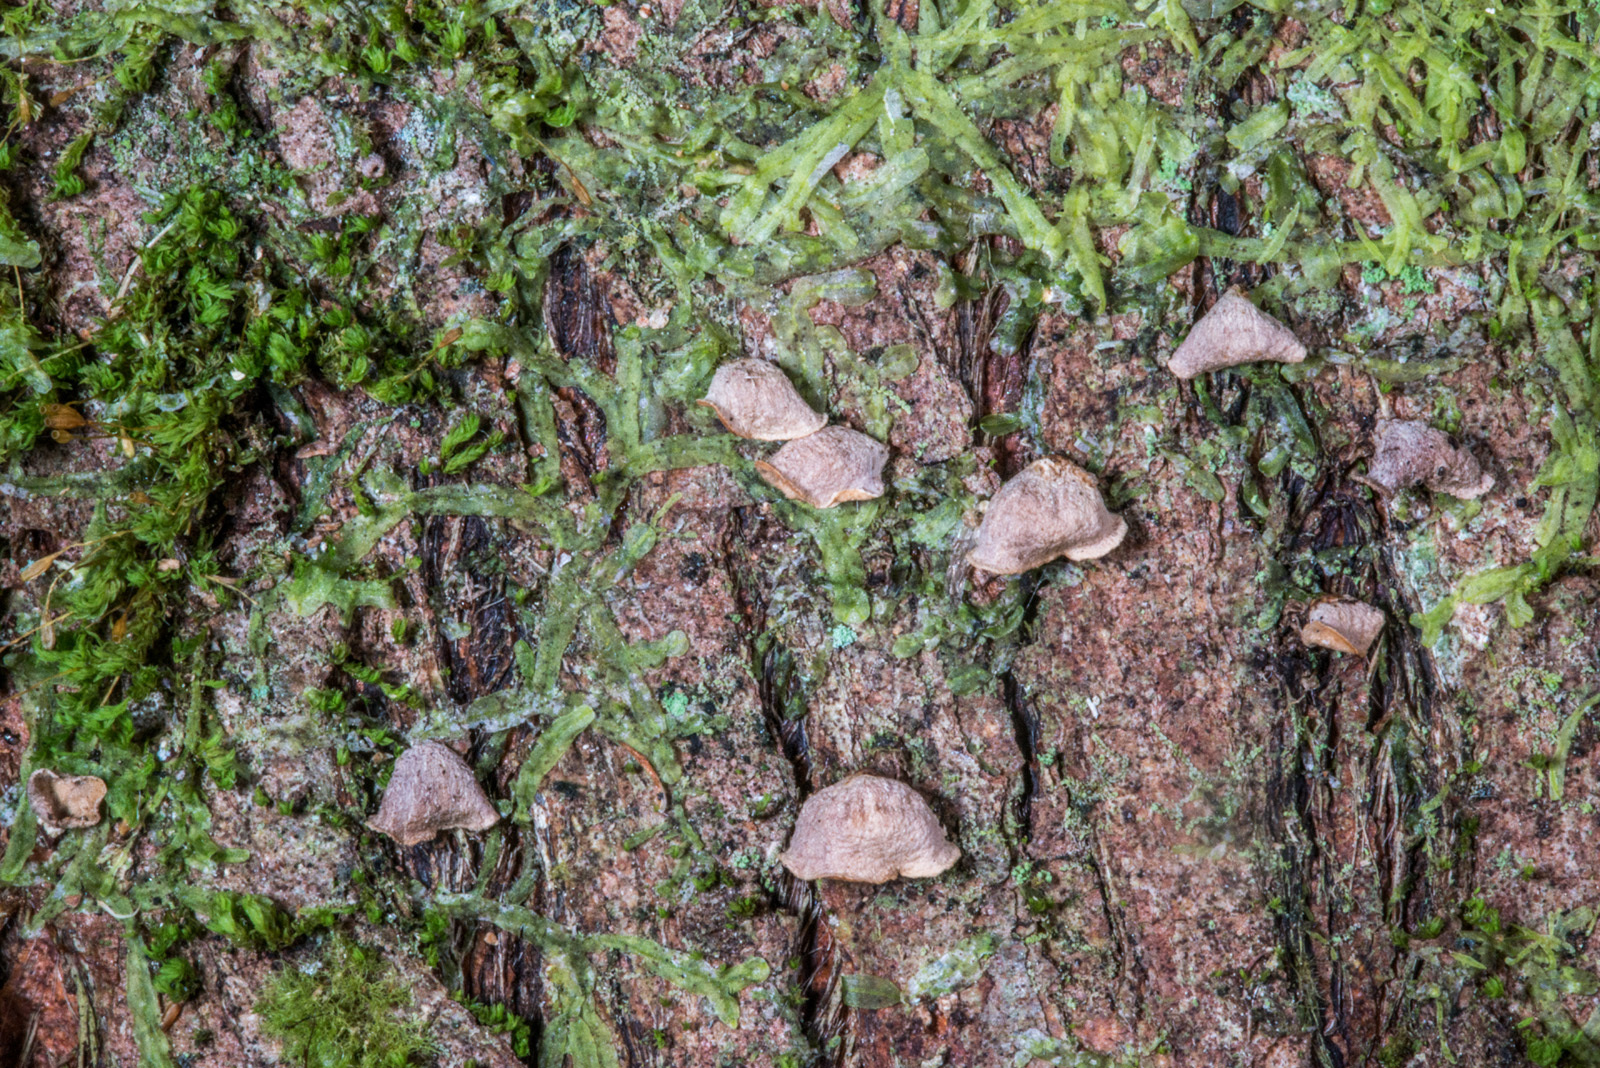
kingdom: Fungi
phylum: Basidiomycota
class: Agaricomycetes
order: Agaricales
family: Marasmiaceae
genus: Calyptella
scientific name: Calyptella totara
